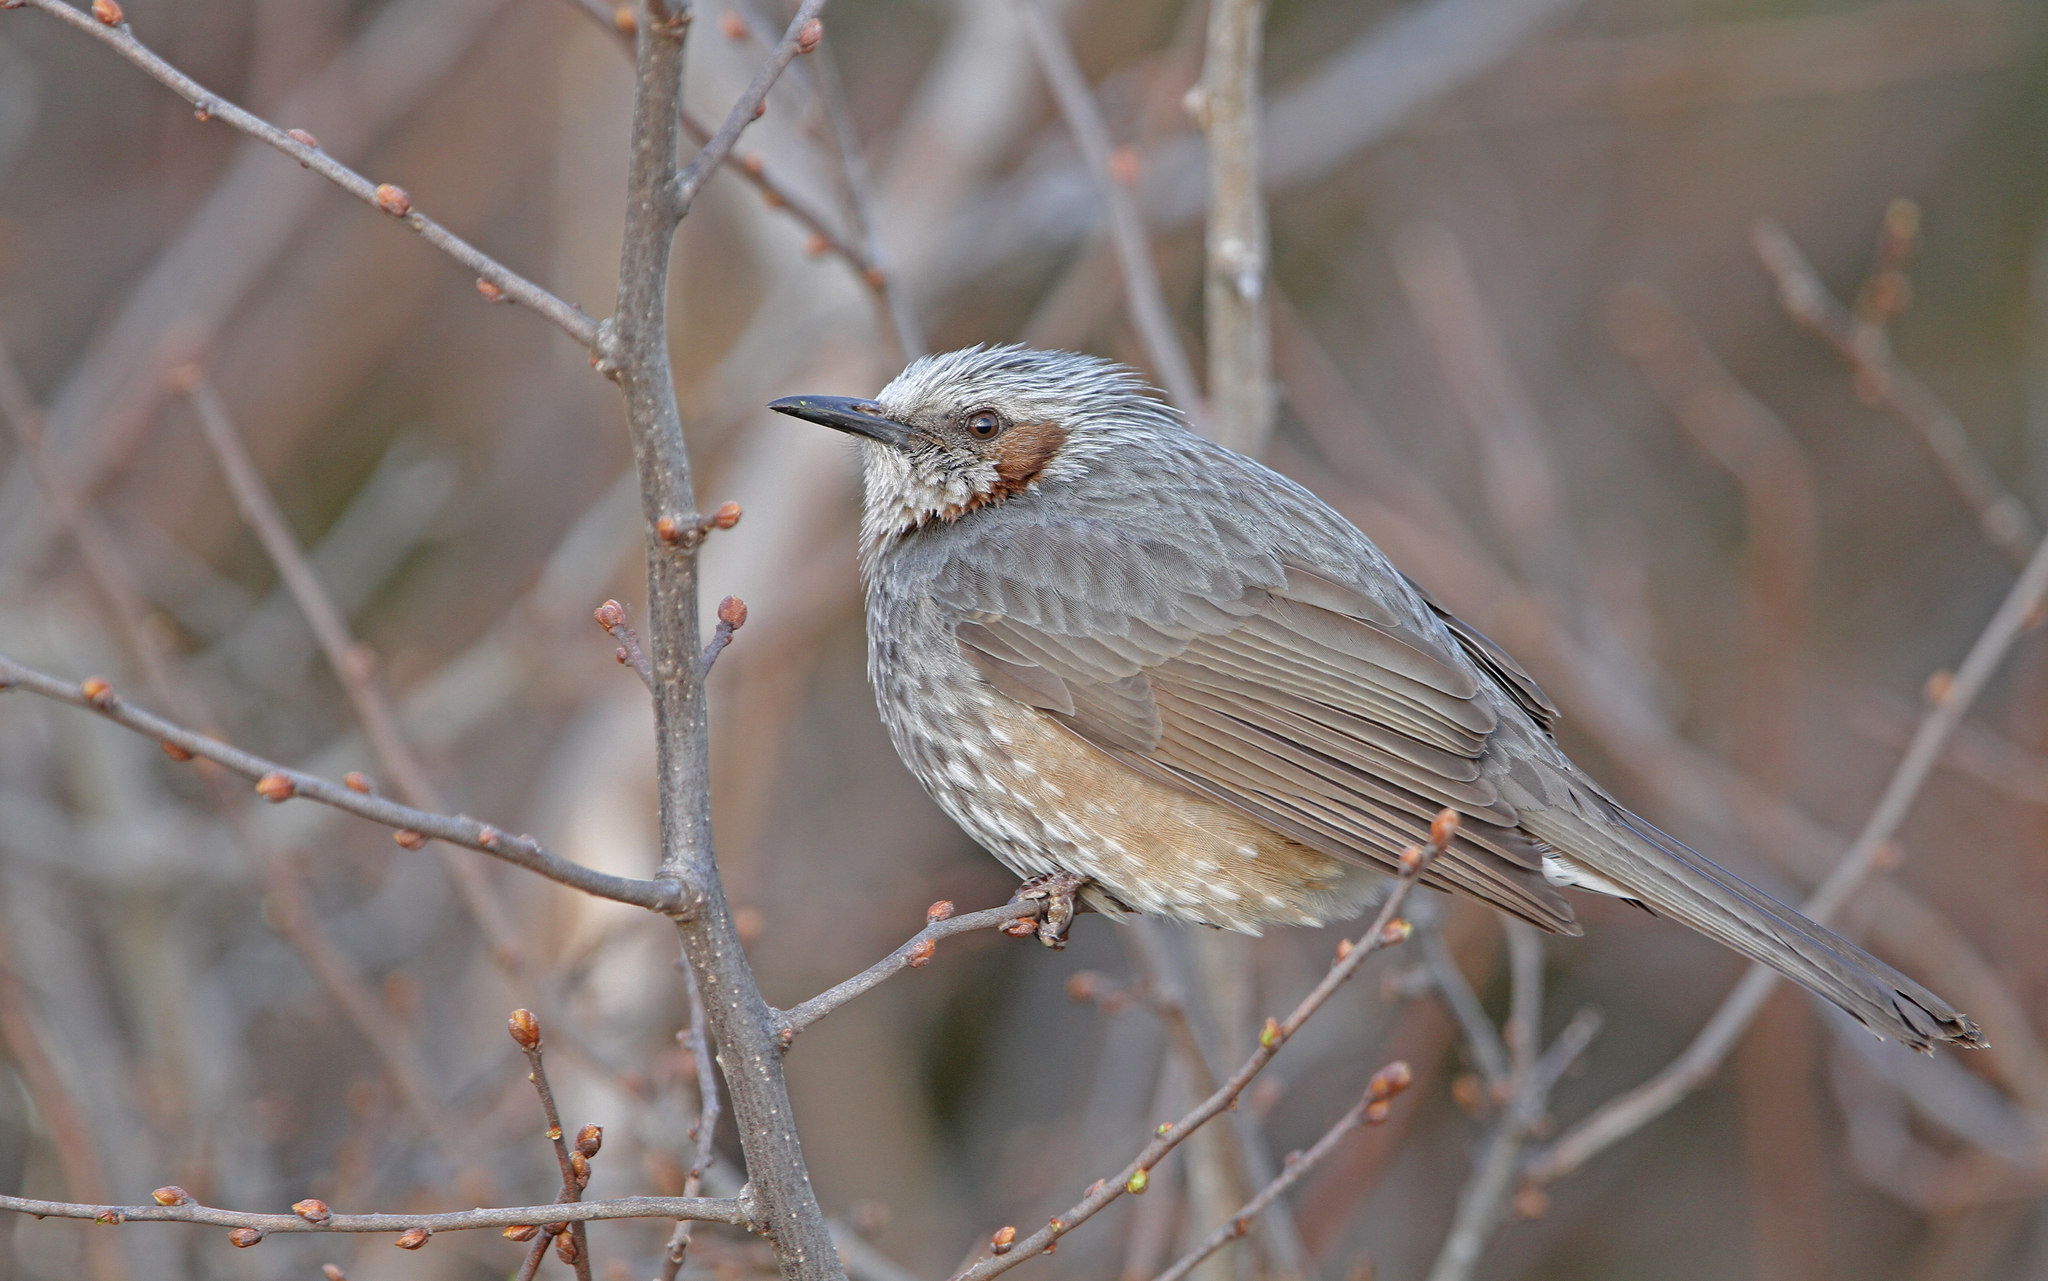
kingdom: Animalia
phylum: Chordata
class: Aves
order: Passeriformes
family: Pycnonotidae
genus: Hypsipetes
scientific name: Hypsipetes amaurotis
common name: Brown-eared bulbul
